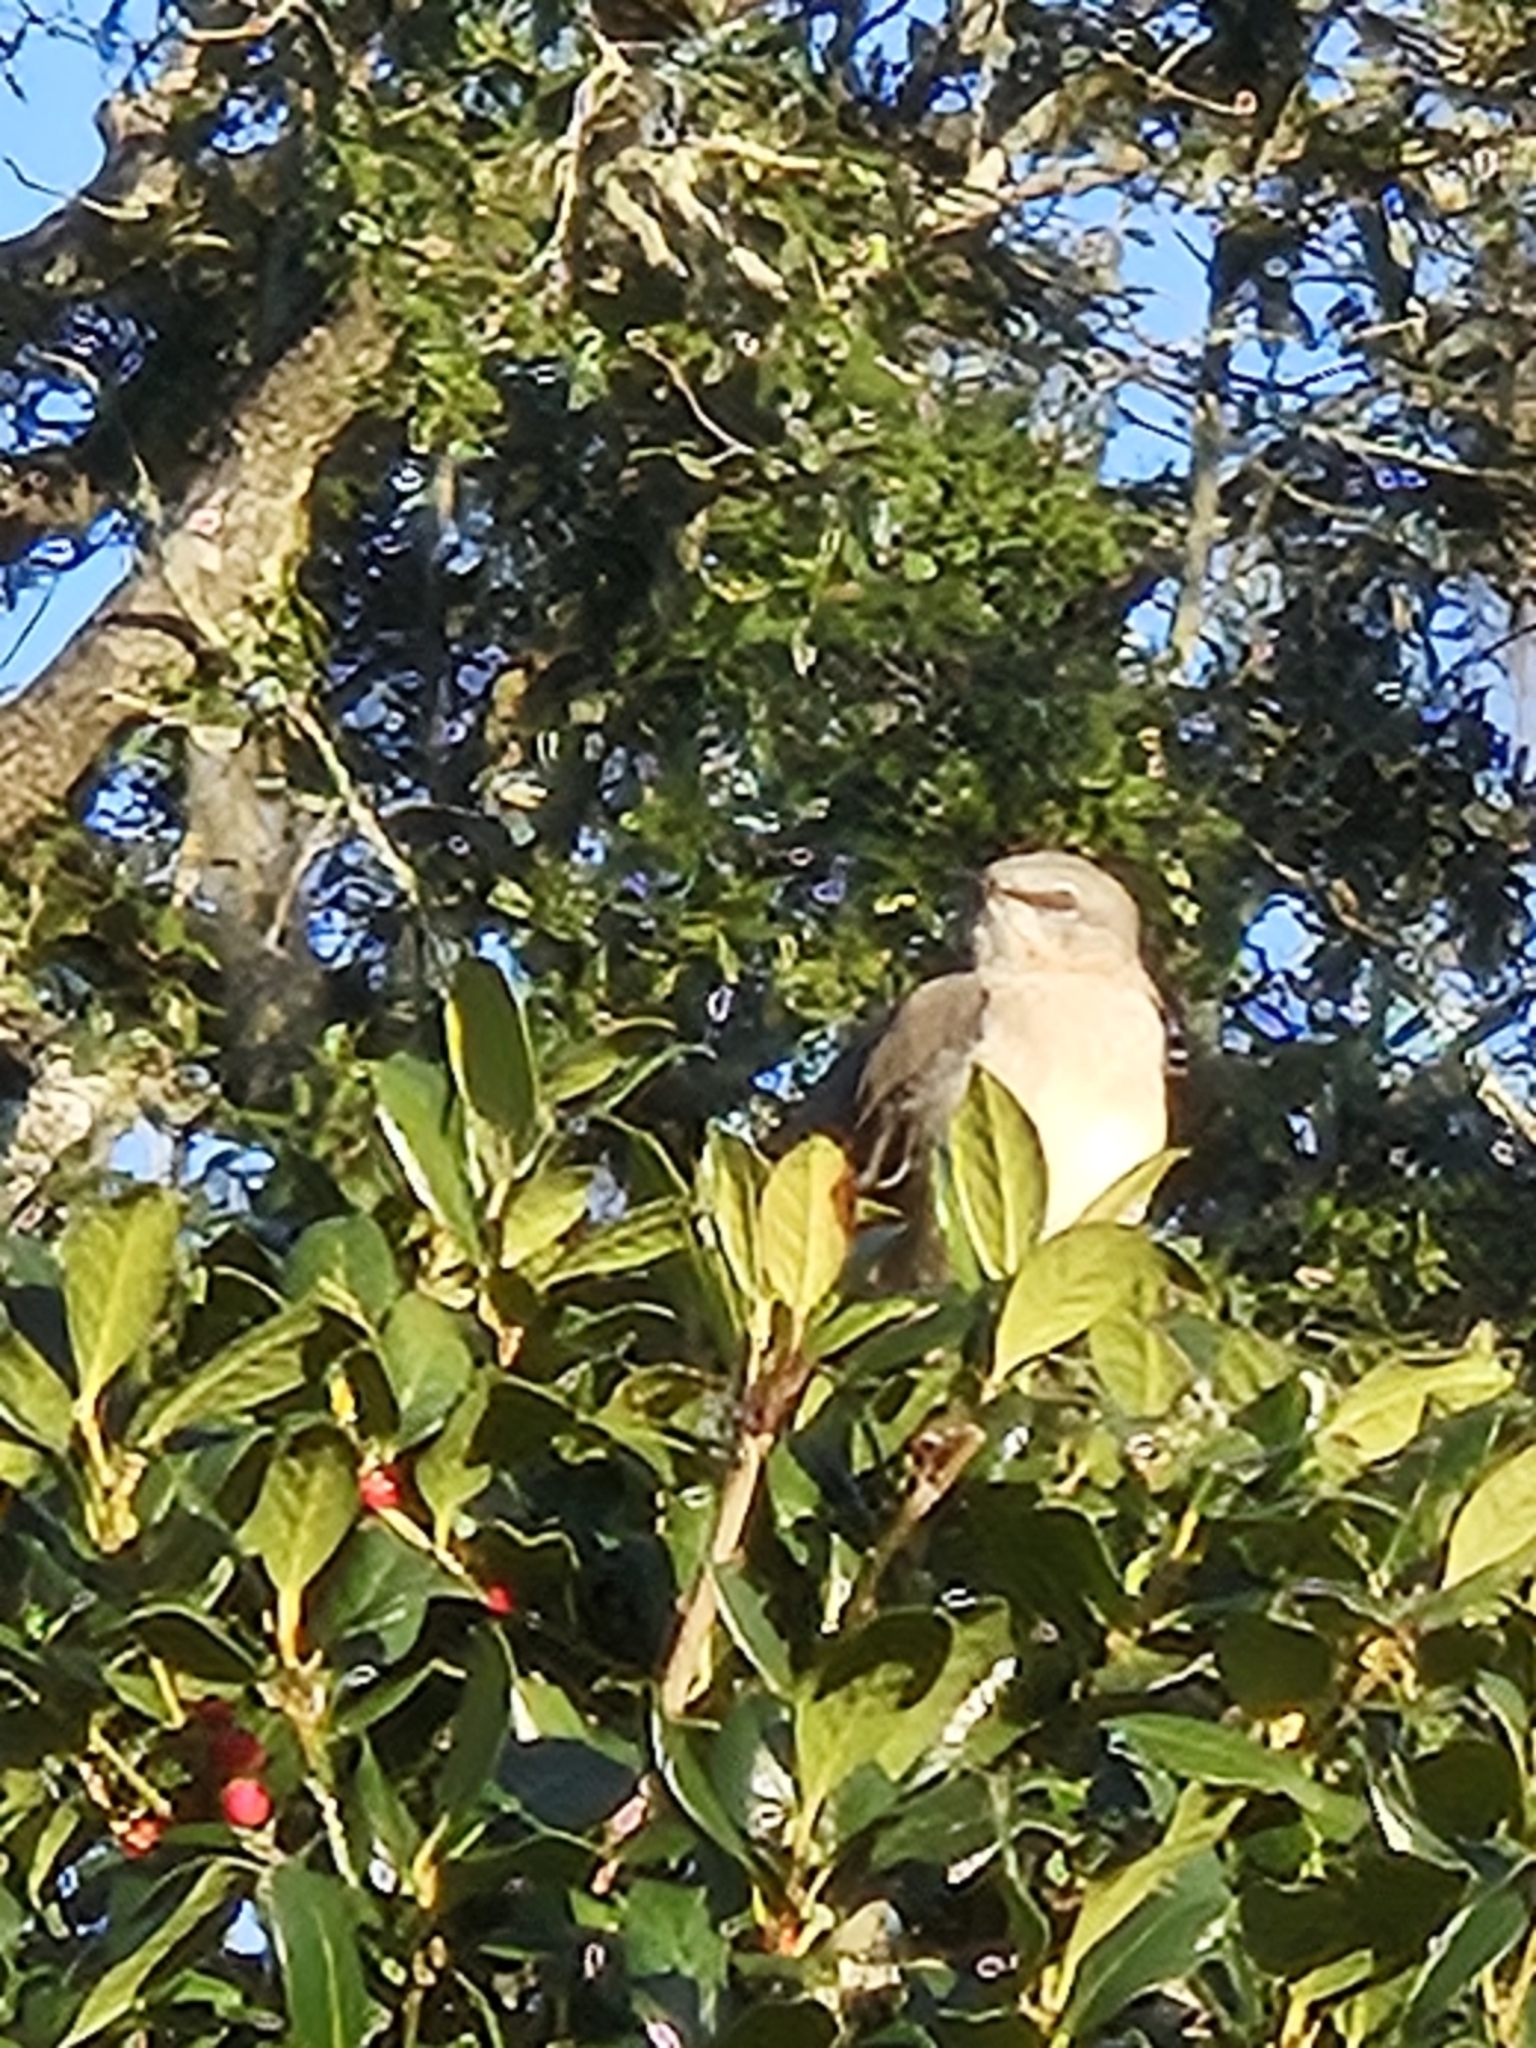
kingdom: Animalia
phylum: Chordata
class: Aves
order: Passeriformes
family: Mimidae
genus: Mimus
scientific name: Mimus polyglottos
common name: Northern mockingbird
